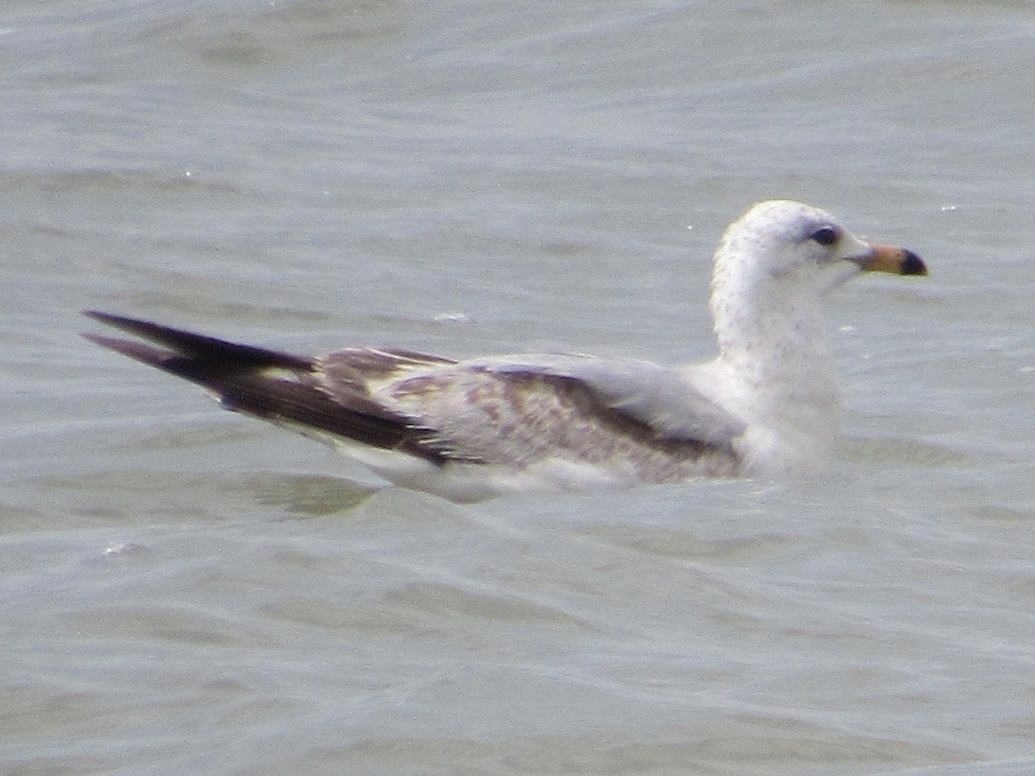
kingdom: Animalia
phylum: Chordata
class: Aves
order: Charadriiformes
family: Laridae
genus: Larus
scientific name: Larus delawarensis
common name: Ring-billed gull
